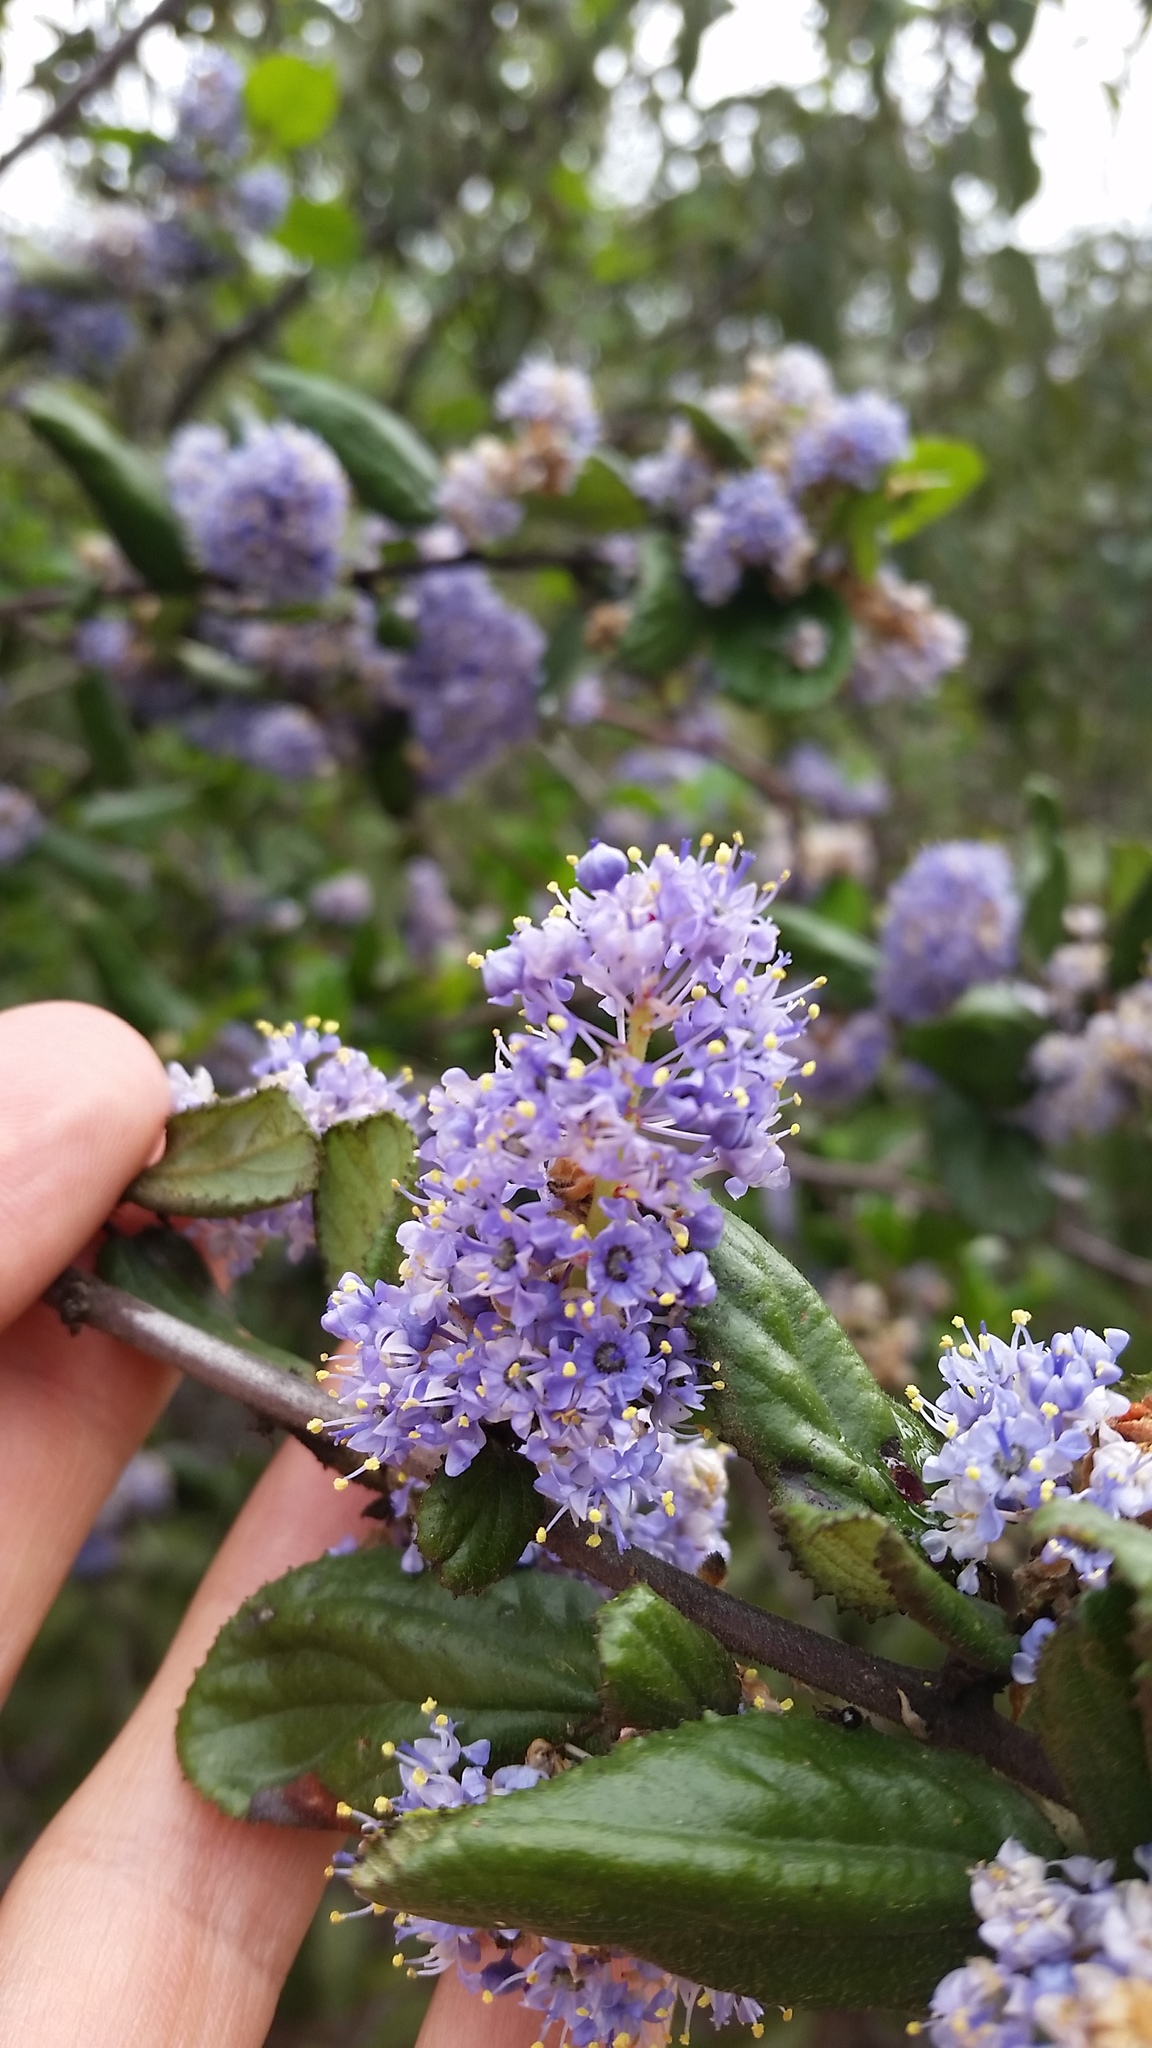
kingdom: Plantae
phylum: Tracheophyta
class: Magnoliopsida
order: Rosales
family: Rhamnaceae
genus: Ceanothus
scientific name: Ceanothus oliganthus
